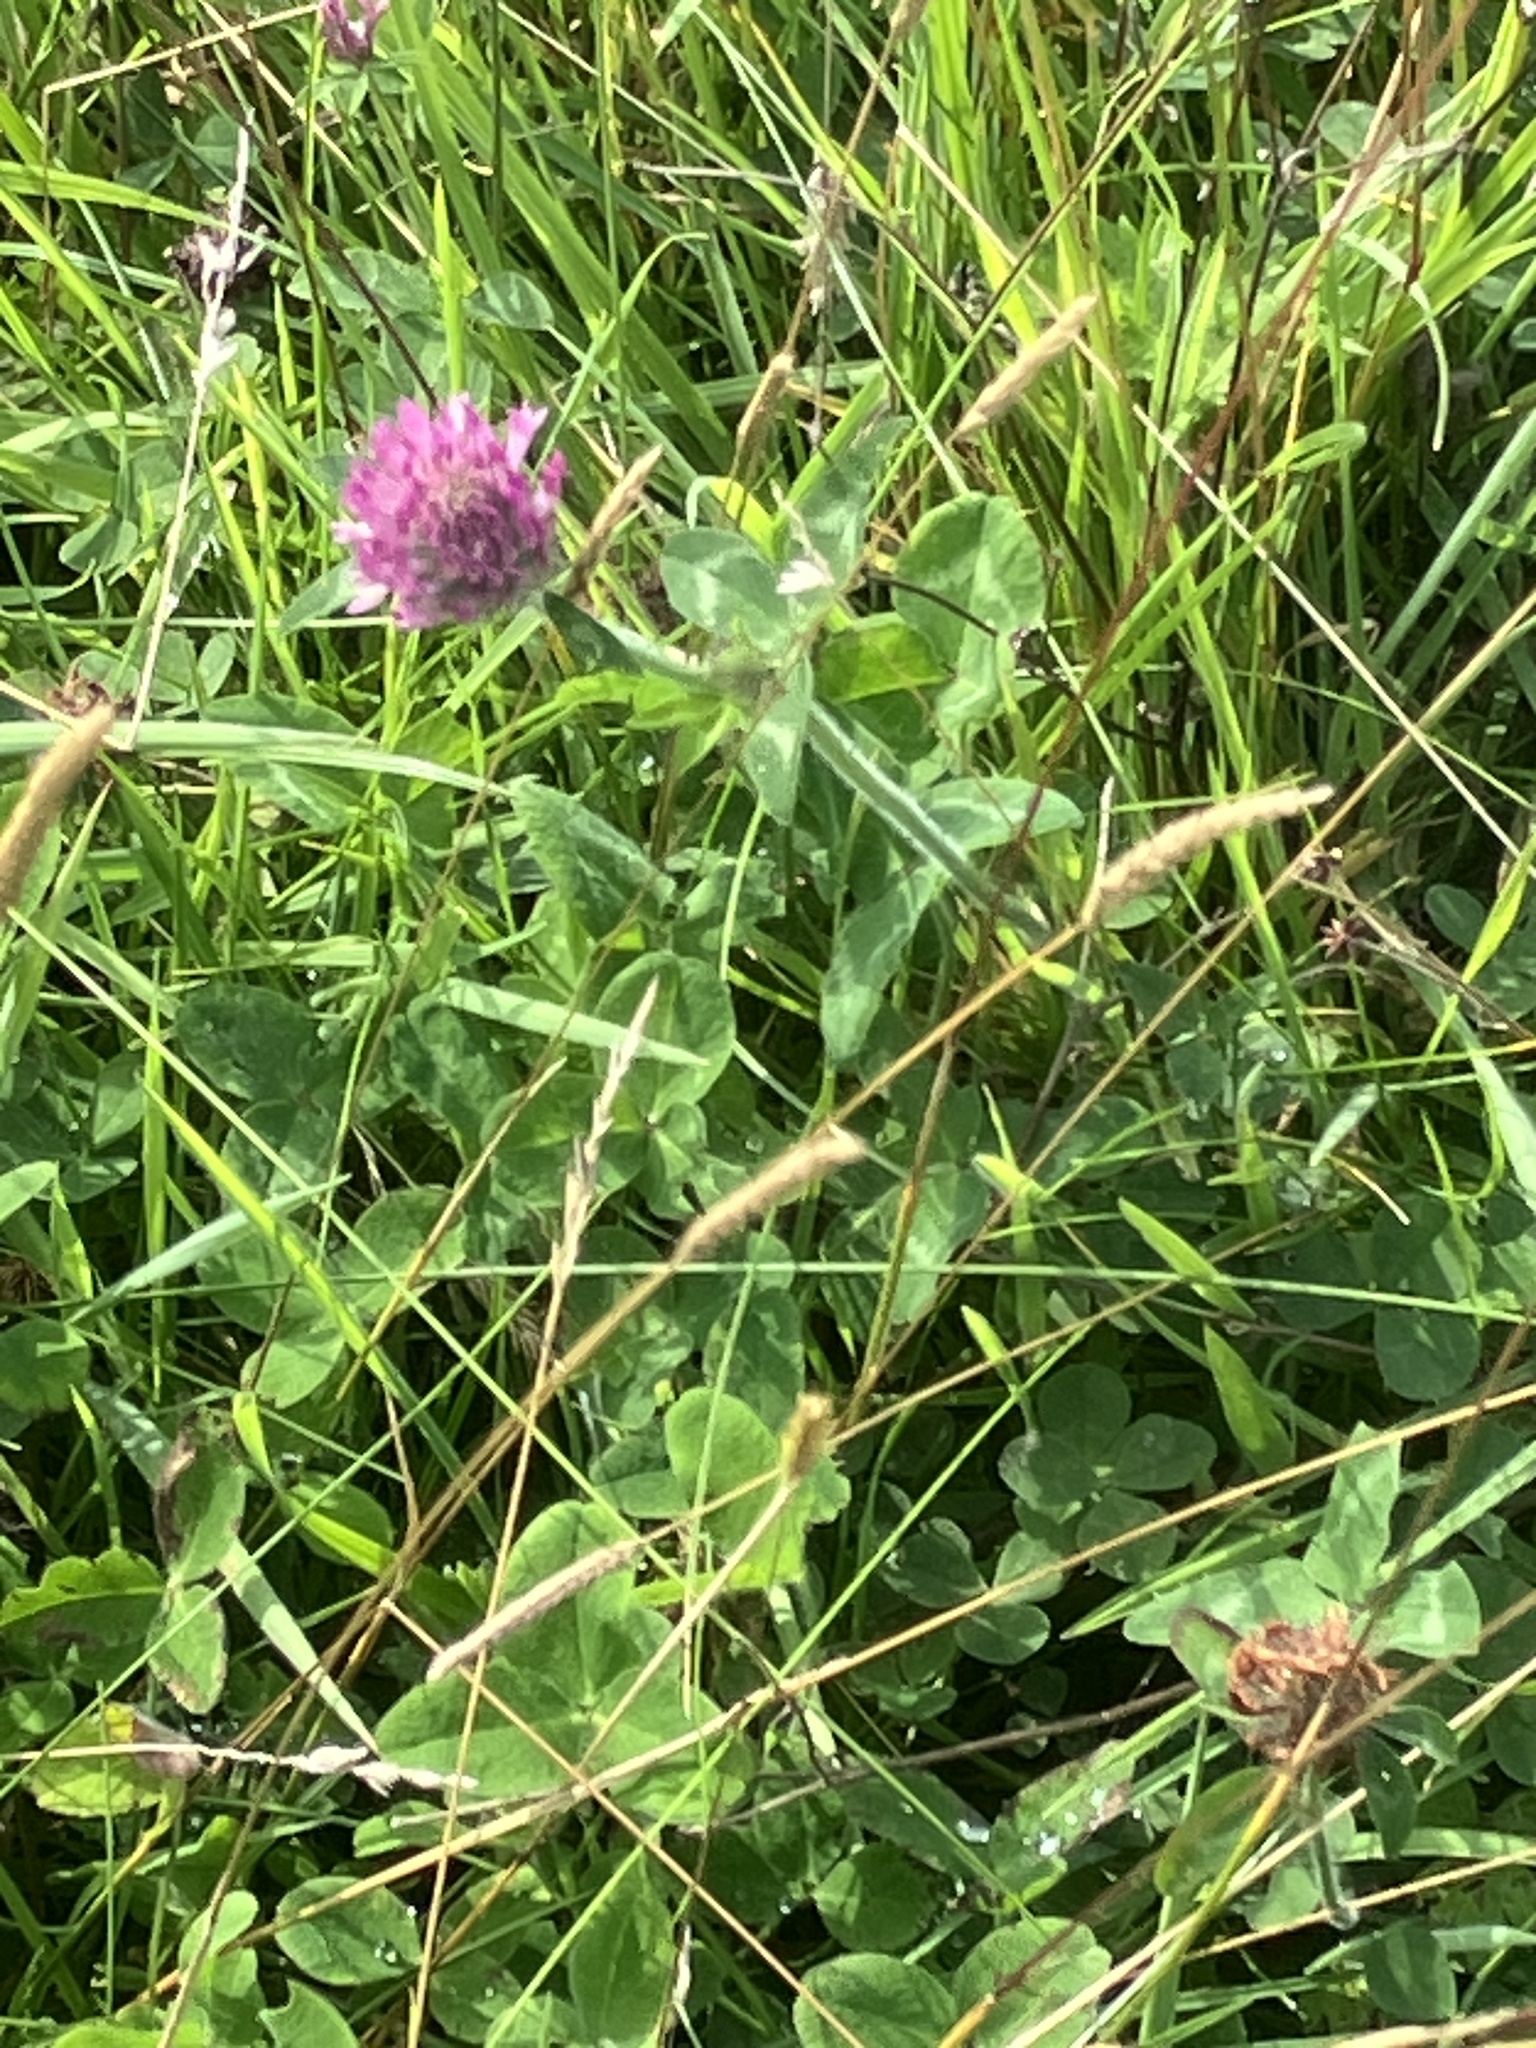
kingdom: Plantae
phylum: Tracheophyta
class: Magnoliopsida
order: Fabales
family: Fabaceae
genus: Trifolium
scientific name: Trifolium pratense
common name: Red clover
